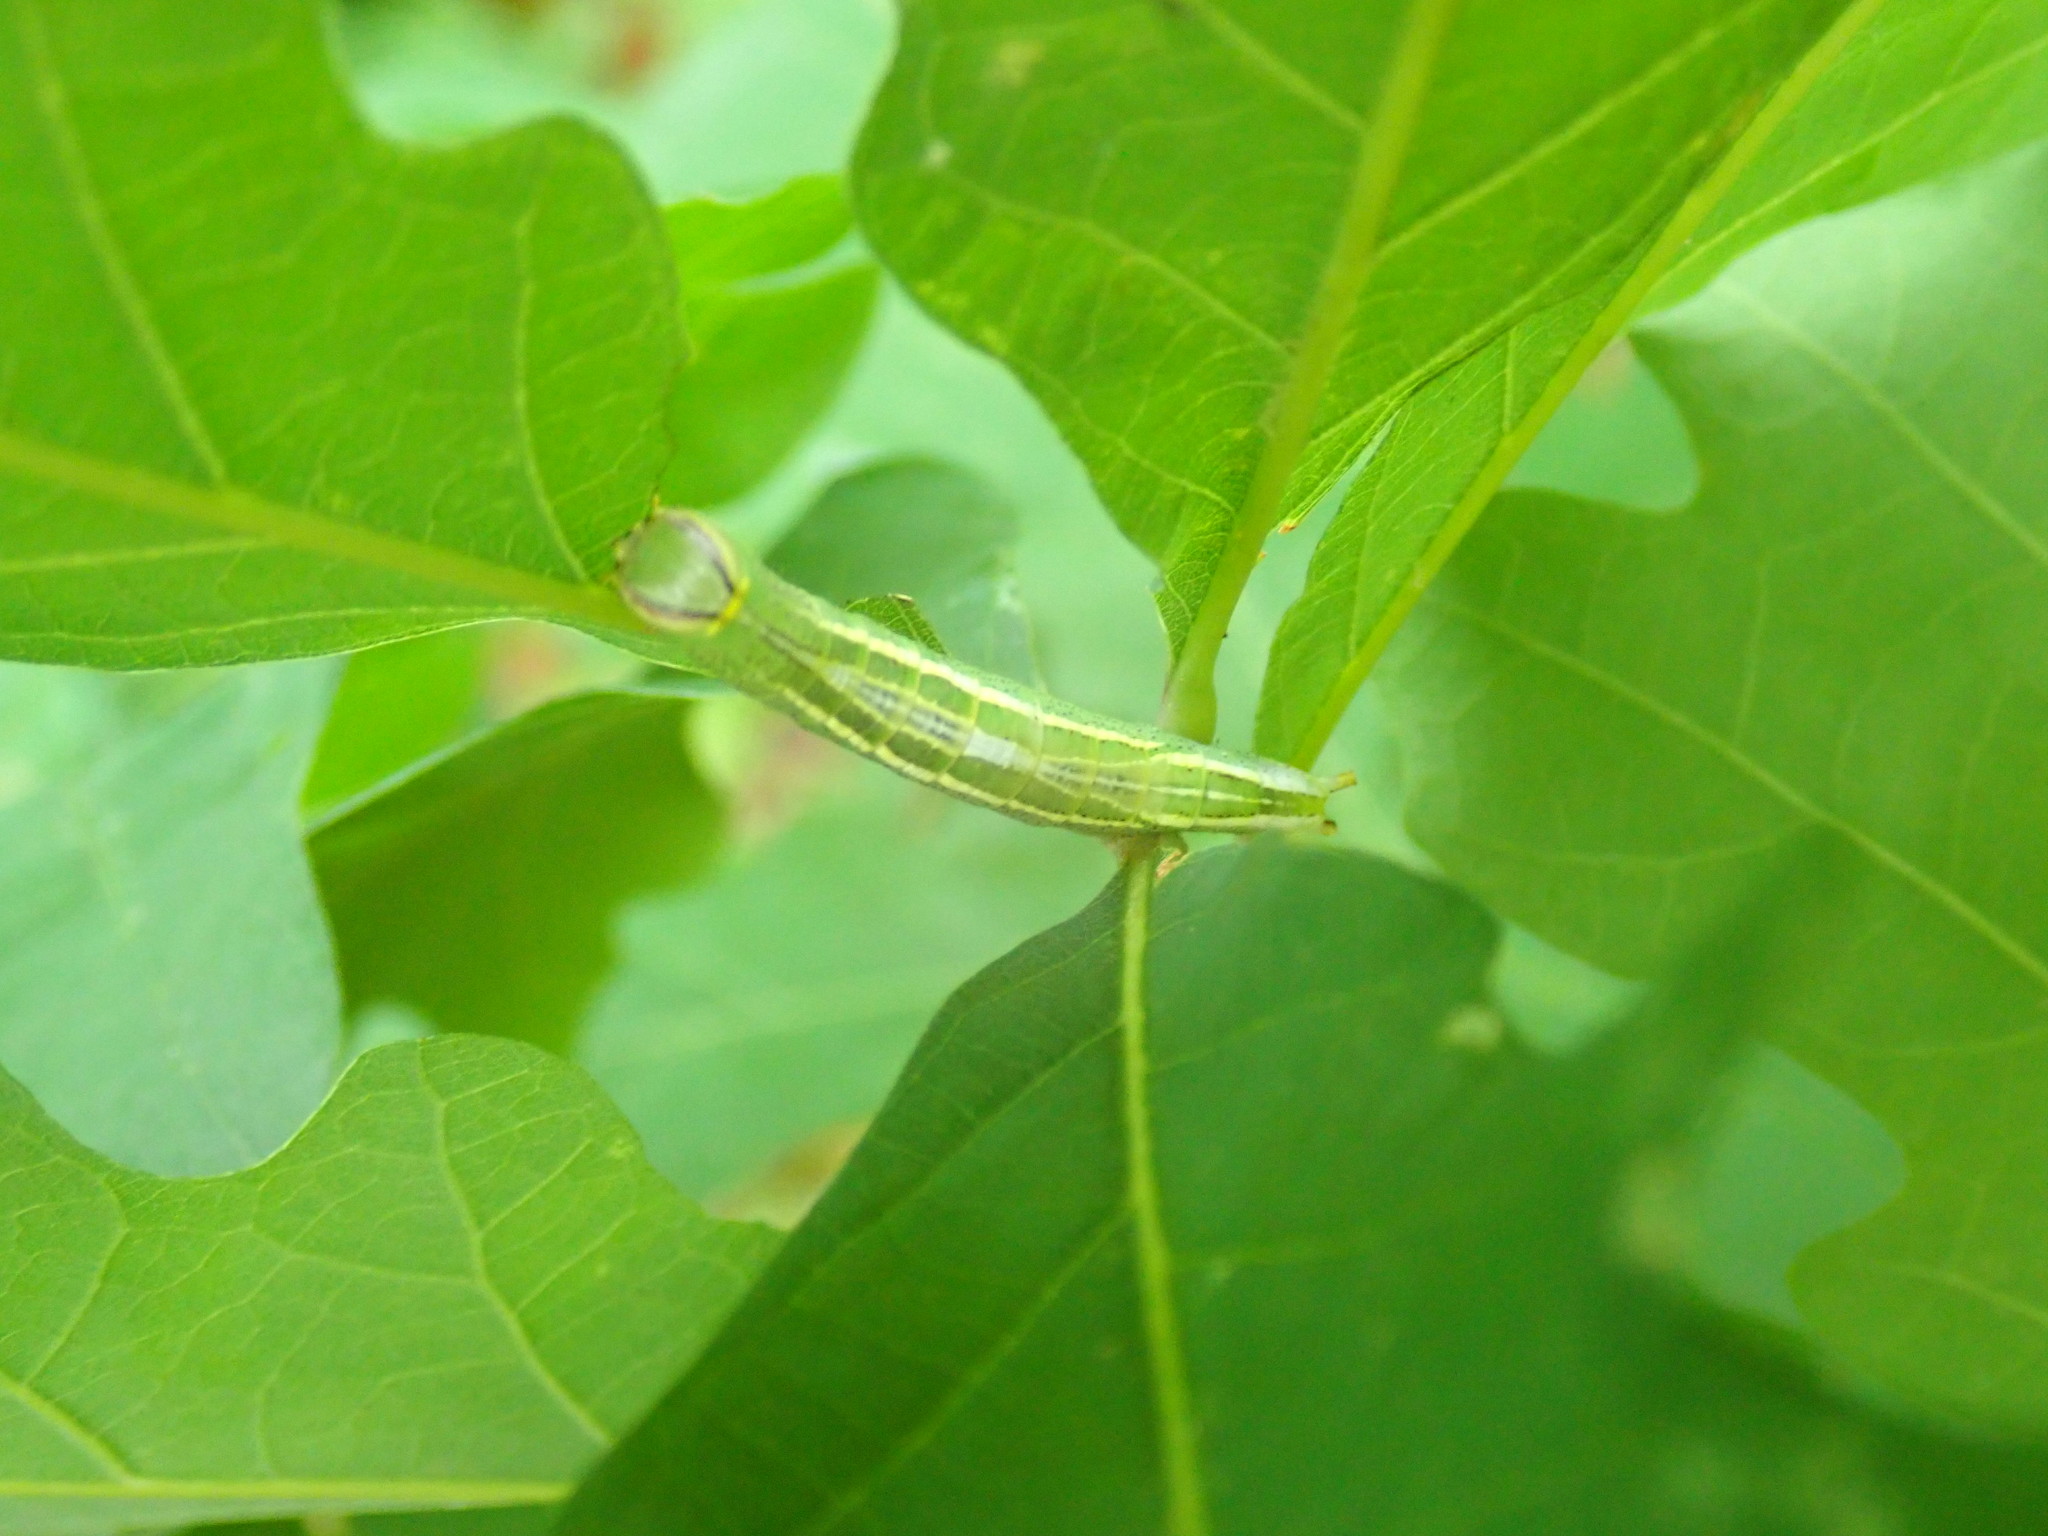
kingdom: Animalia
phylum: Arthropoda
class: Insecta
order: Lepidoptera
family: Notodontidae
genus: Disphragis
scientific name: Disphragis Cecrita guttivitta
